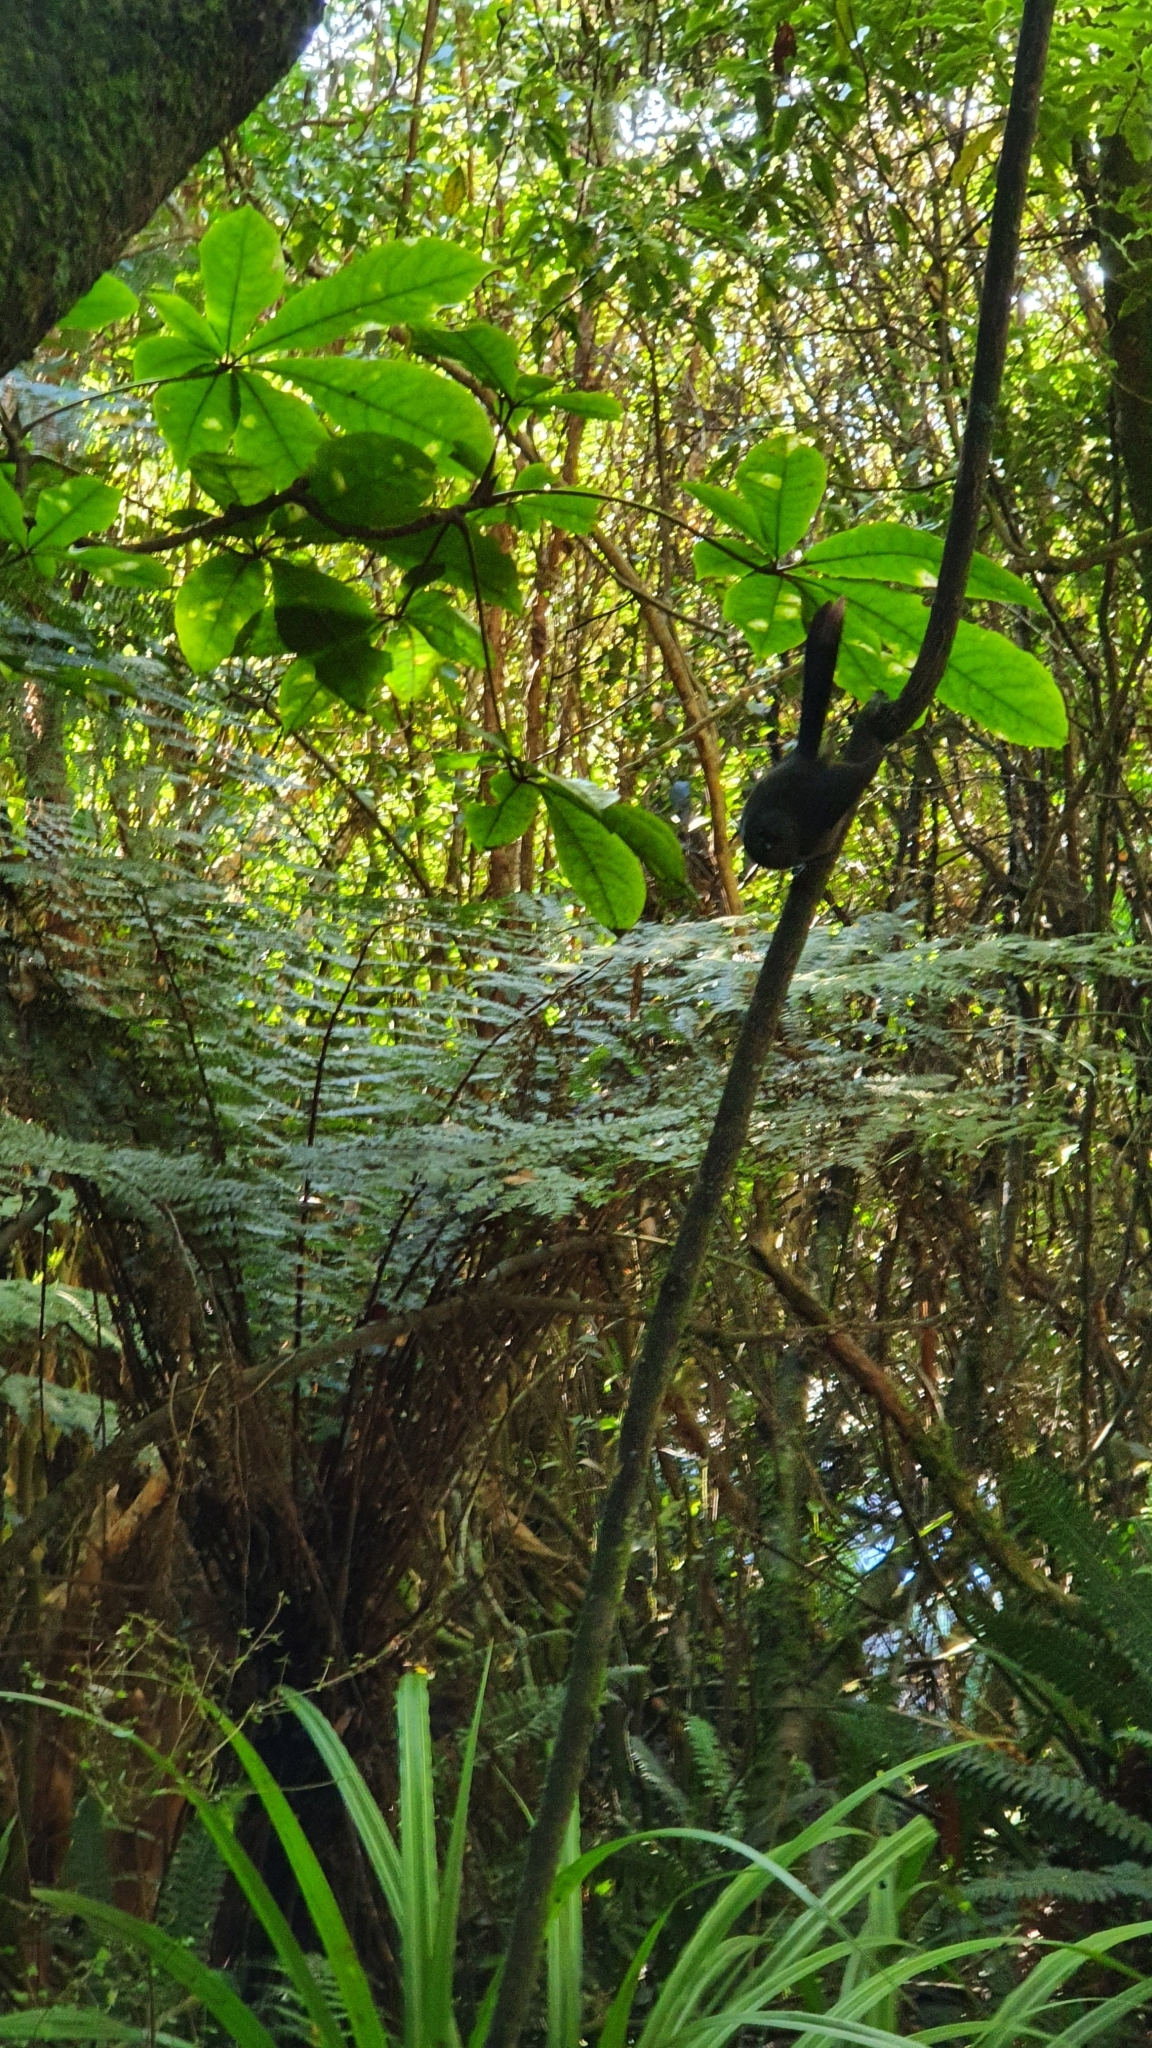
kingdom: Animalia
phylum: Chordata
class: Aves
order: Passeriformes
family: Rhipiduridae
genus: Rhipidura
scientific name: Rhipidura fuliginosa
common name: New zealand fantail
